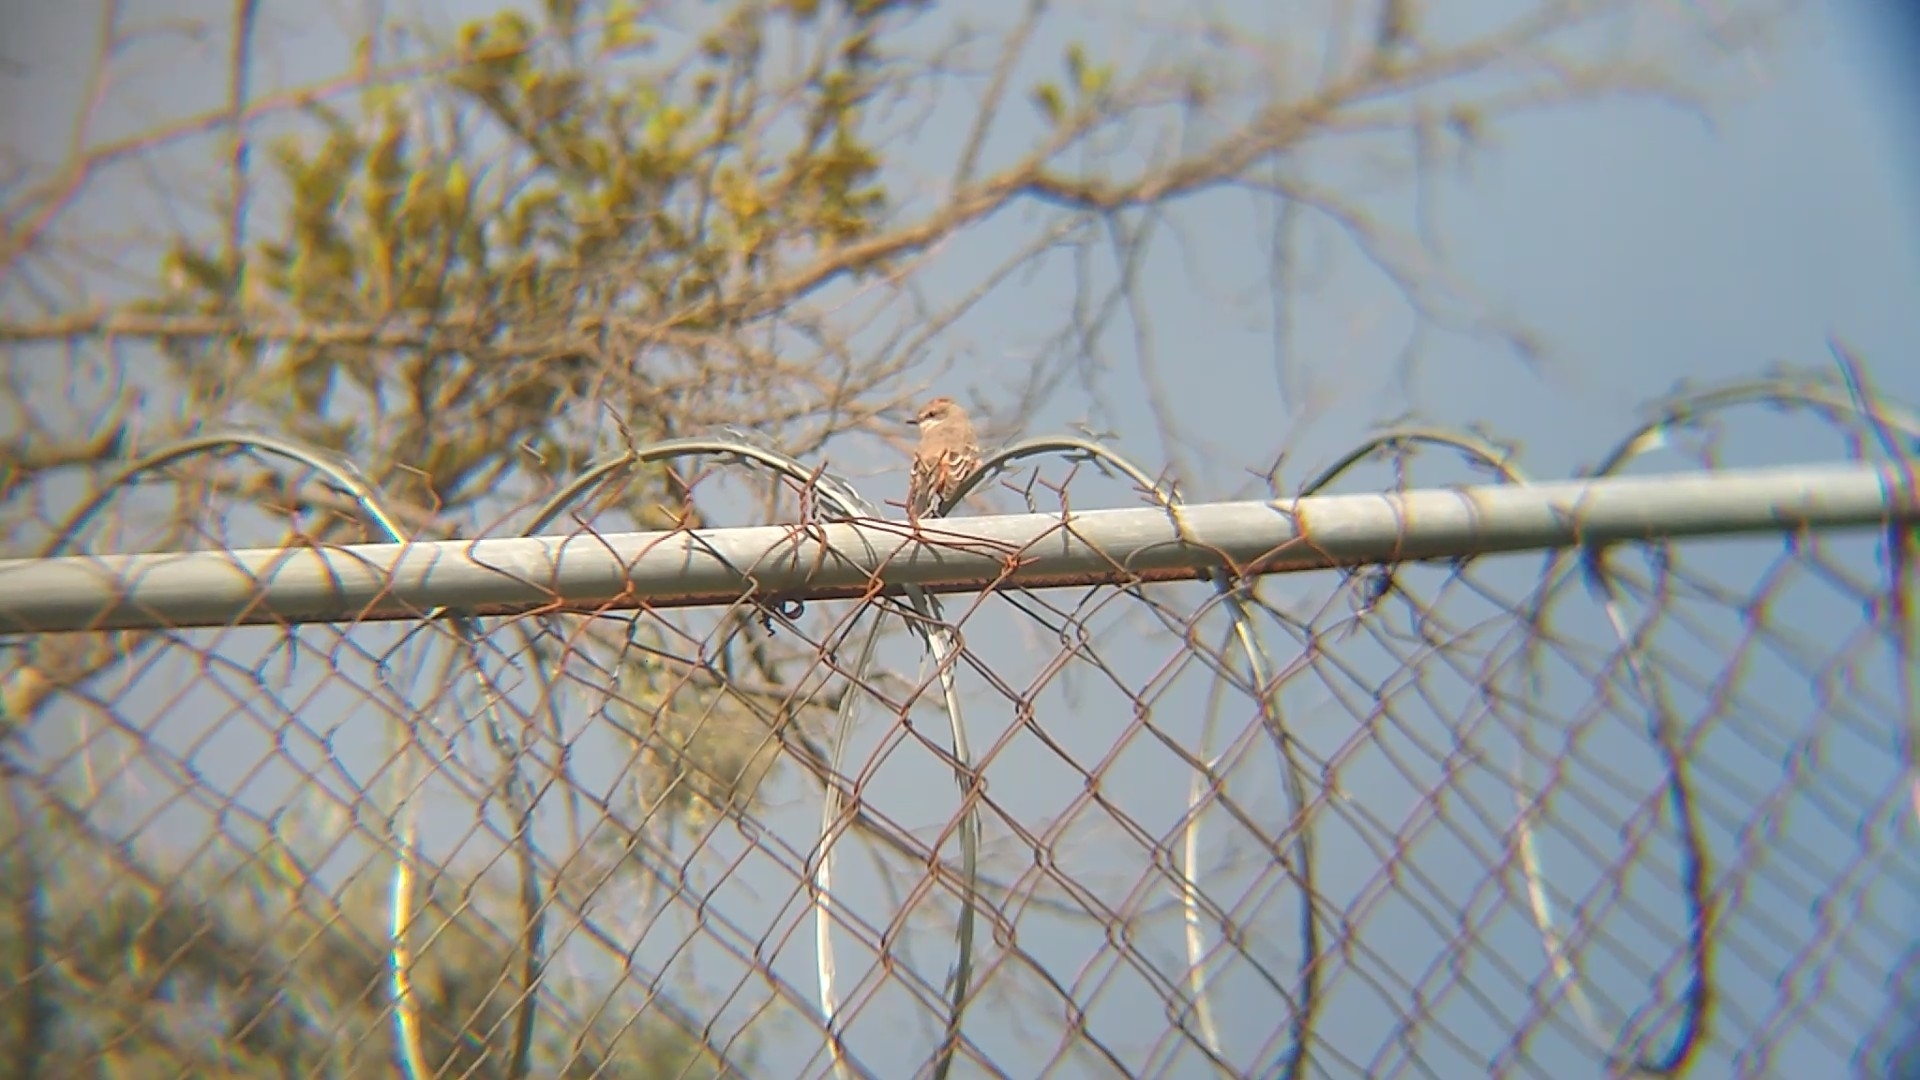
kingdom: Animalia
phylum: Chordata
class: Aves
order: Passeriformes
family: Tyrannidae
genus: Pyrocephalus
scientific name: Pyrocephalus rubinus
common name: Vermilion flycatcher
